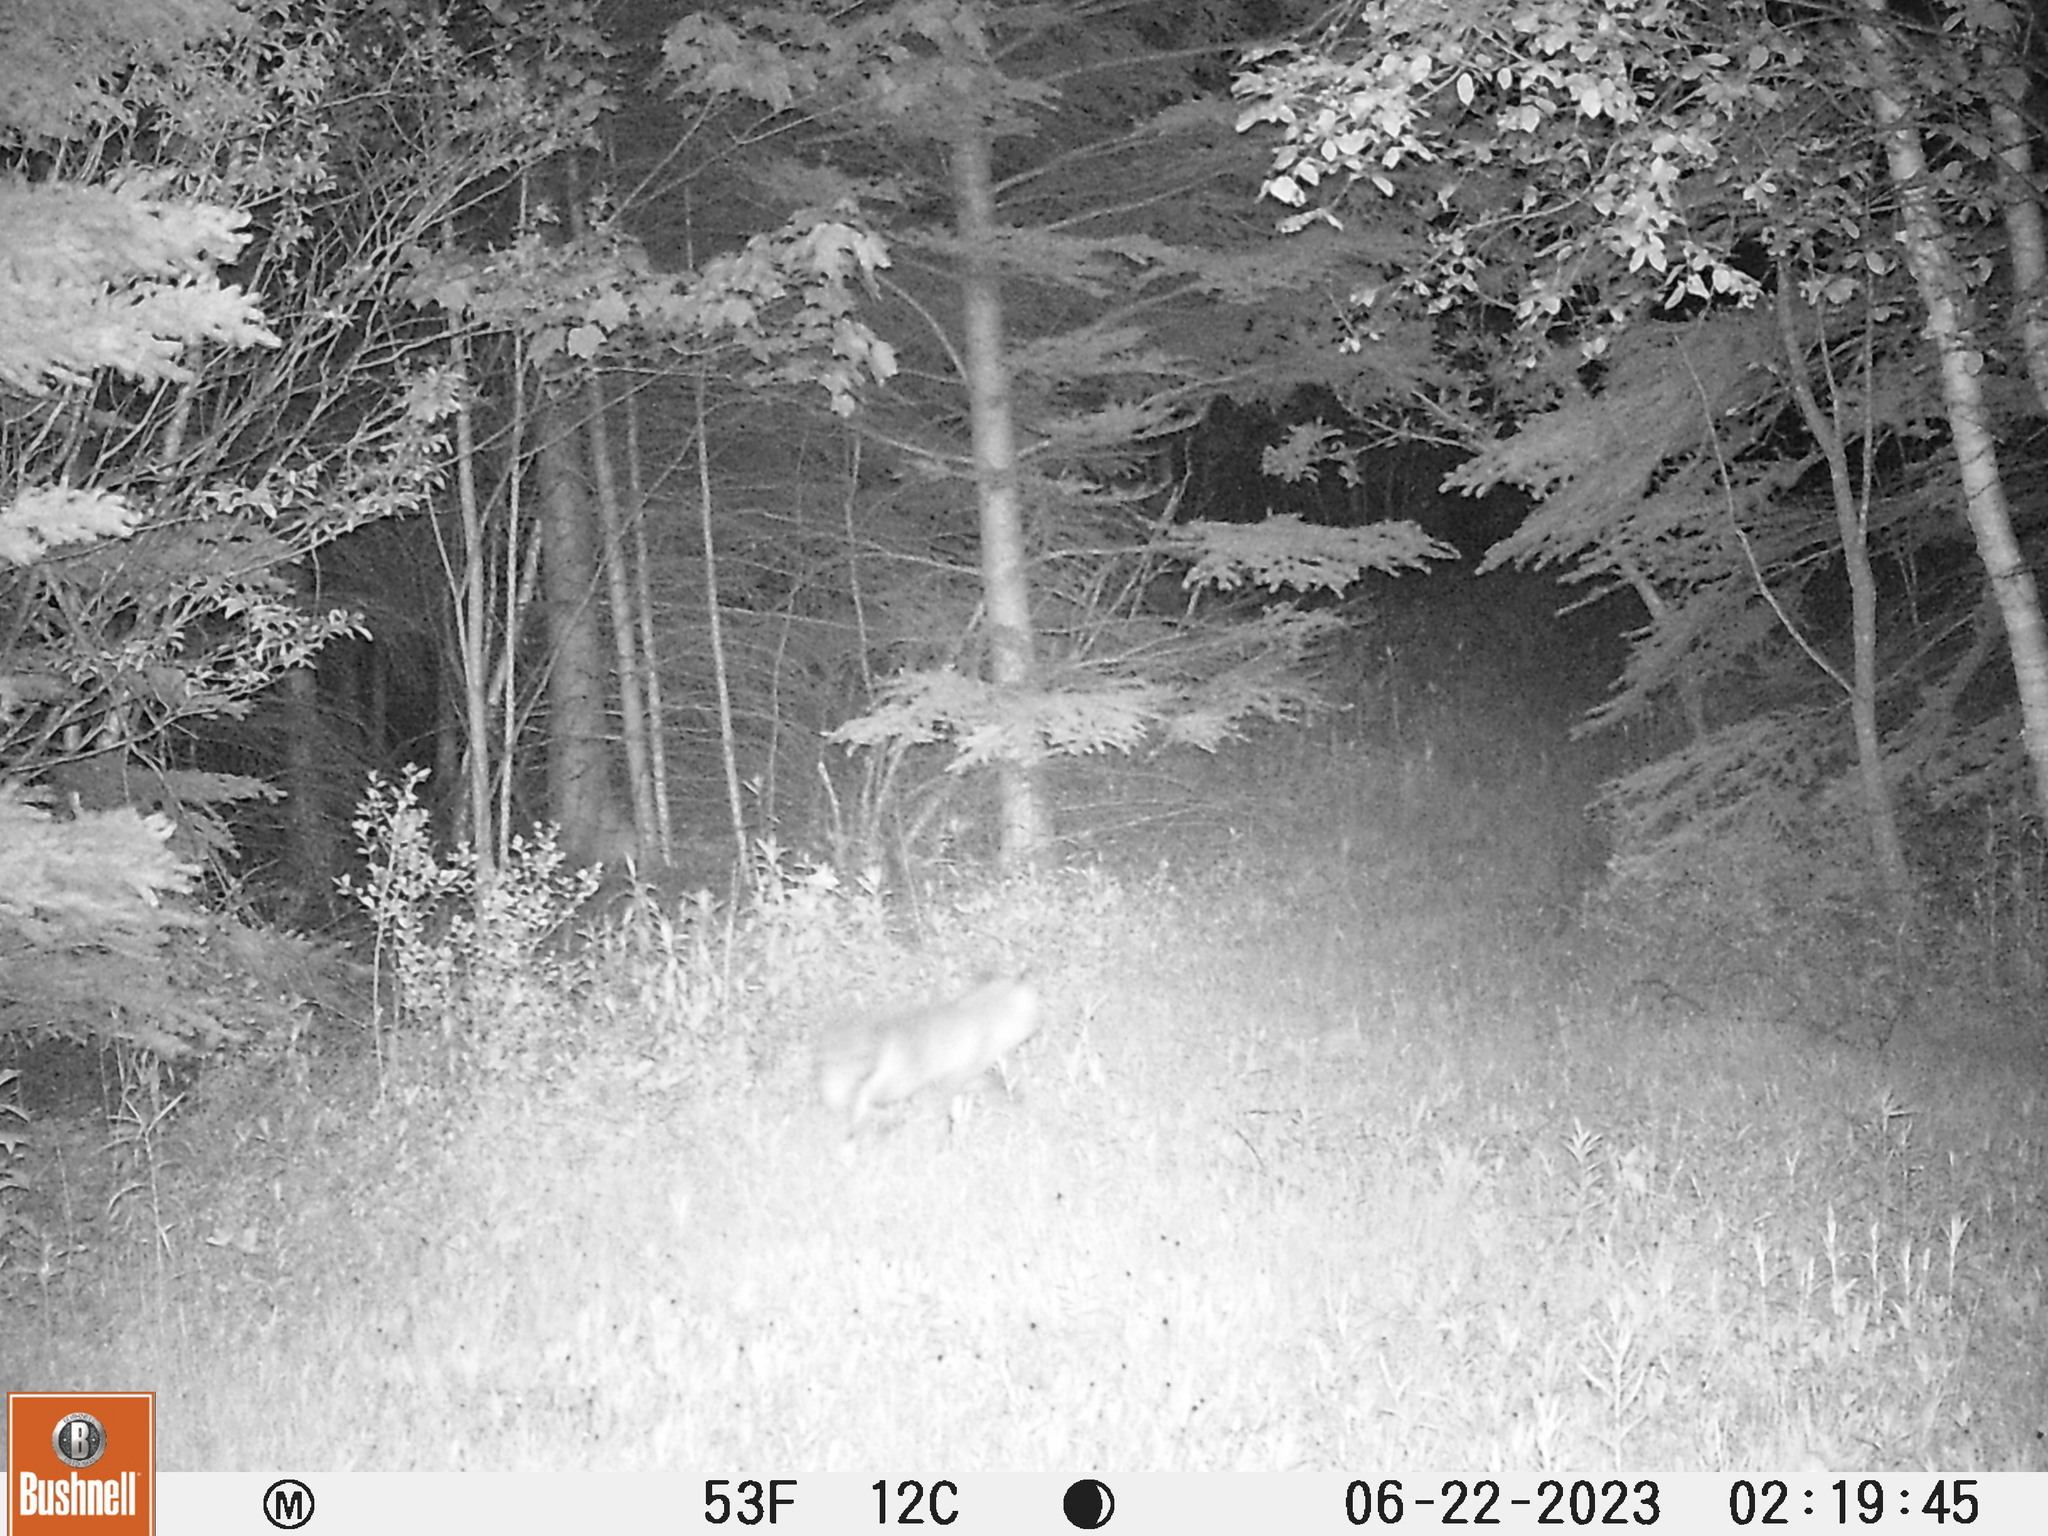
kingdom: Animalia
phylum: Chordata
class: Mammalia
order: Carnivora
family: Canidae
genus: Vulpes
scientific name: Vulpes vulpes
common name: Red fox
